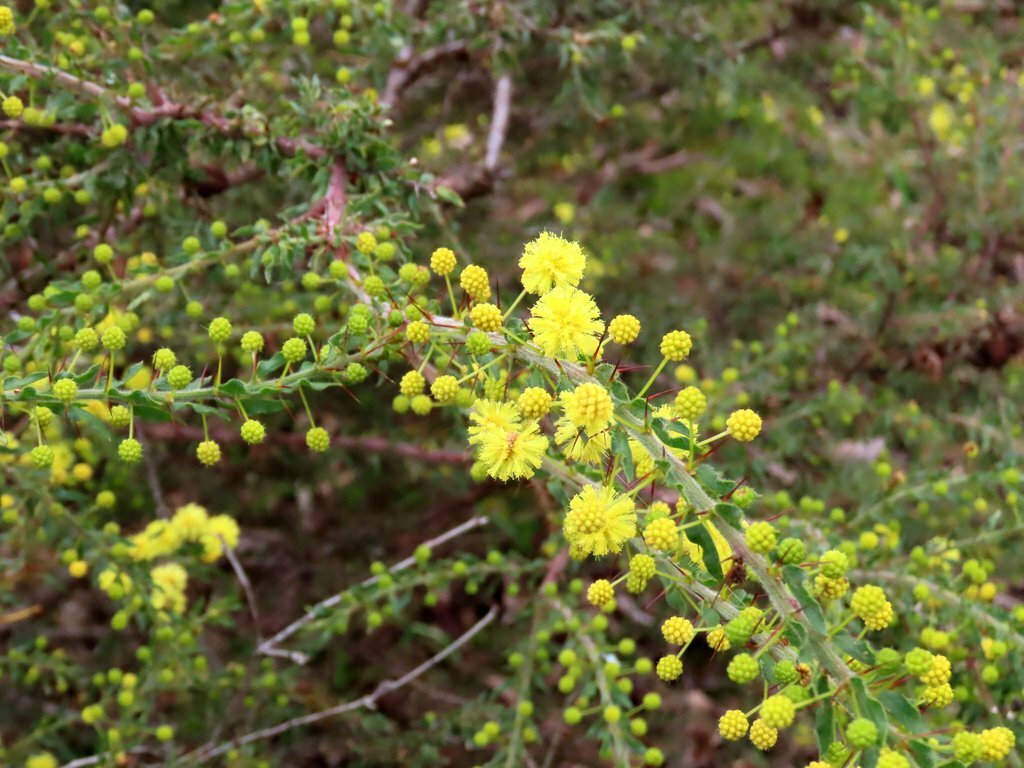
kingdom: Plantae
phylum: Tracheophyta
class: Magnoliopsida
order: Fabales
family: Fabaceae
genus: Acacia
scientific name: Acacia paradoxa
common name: Paradox acacia
